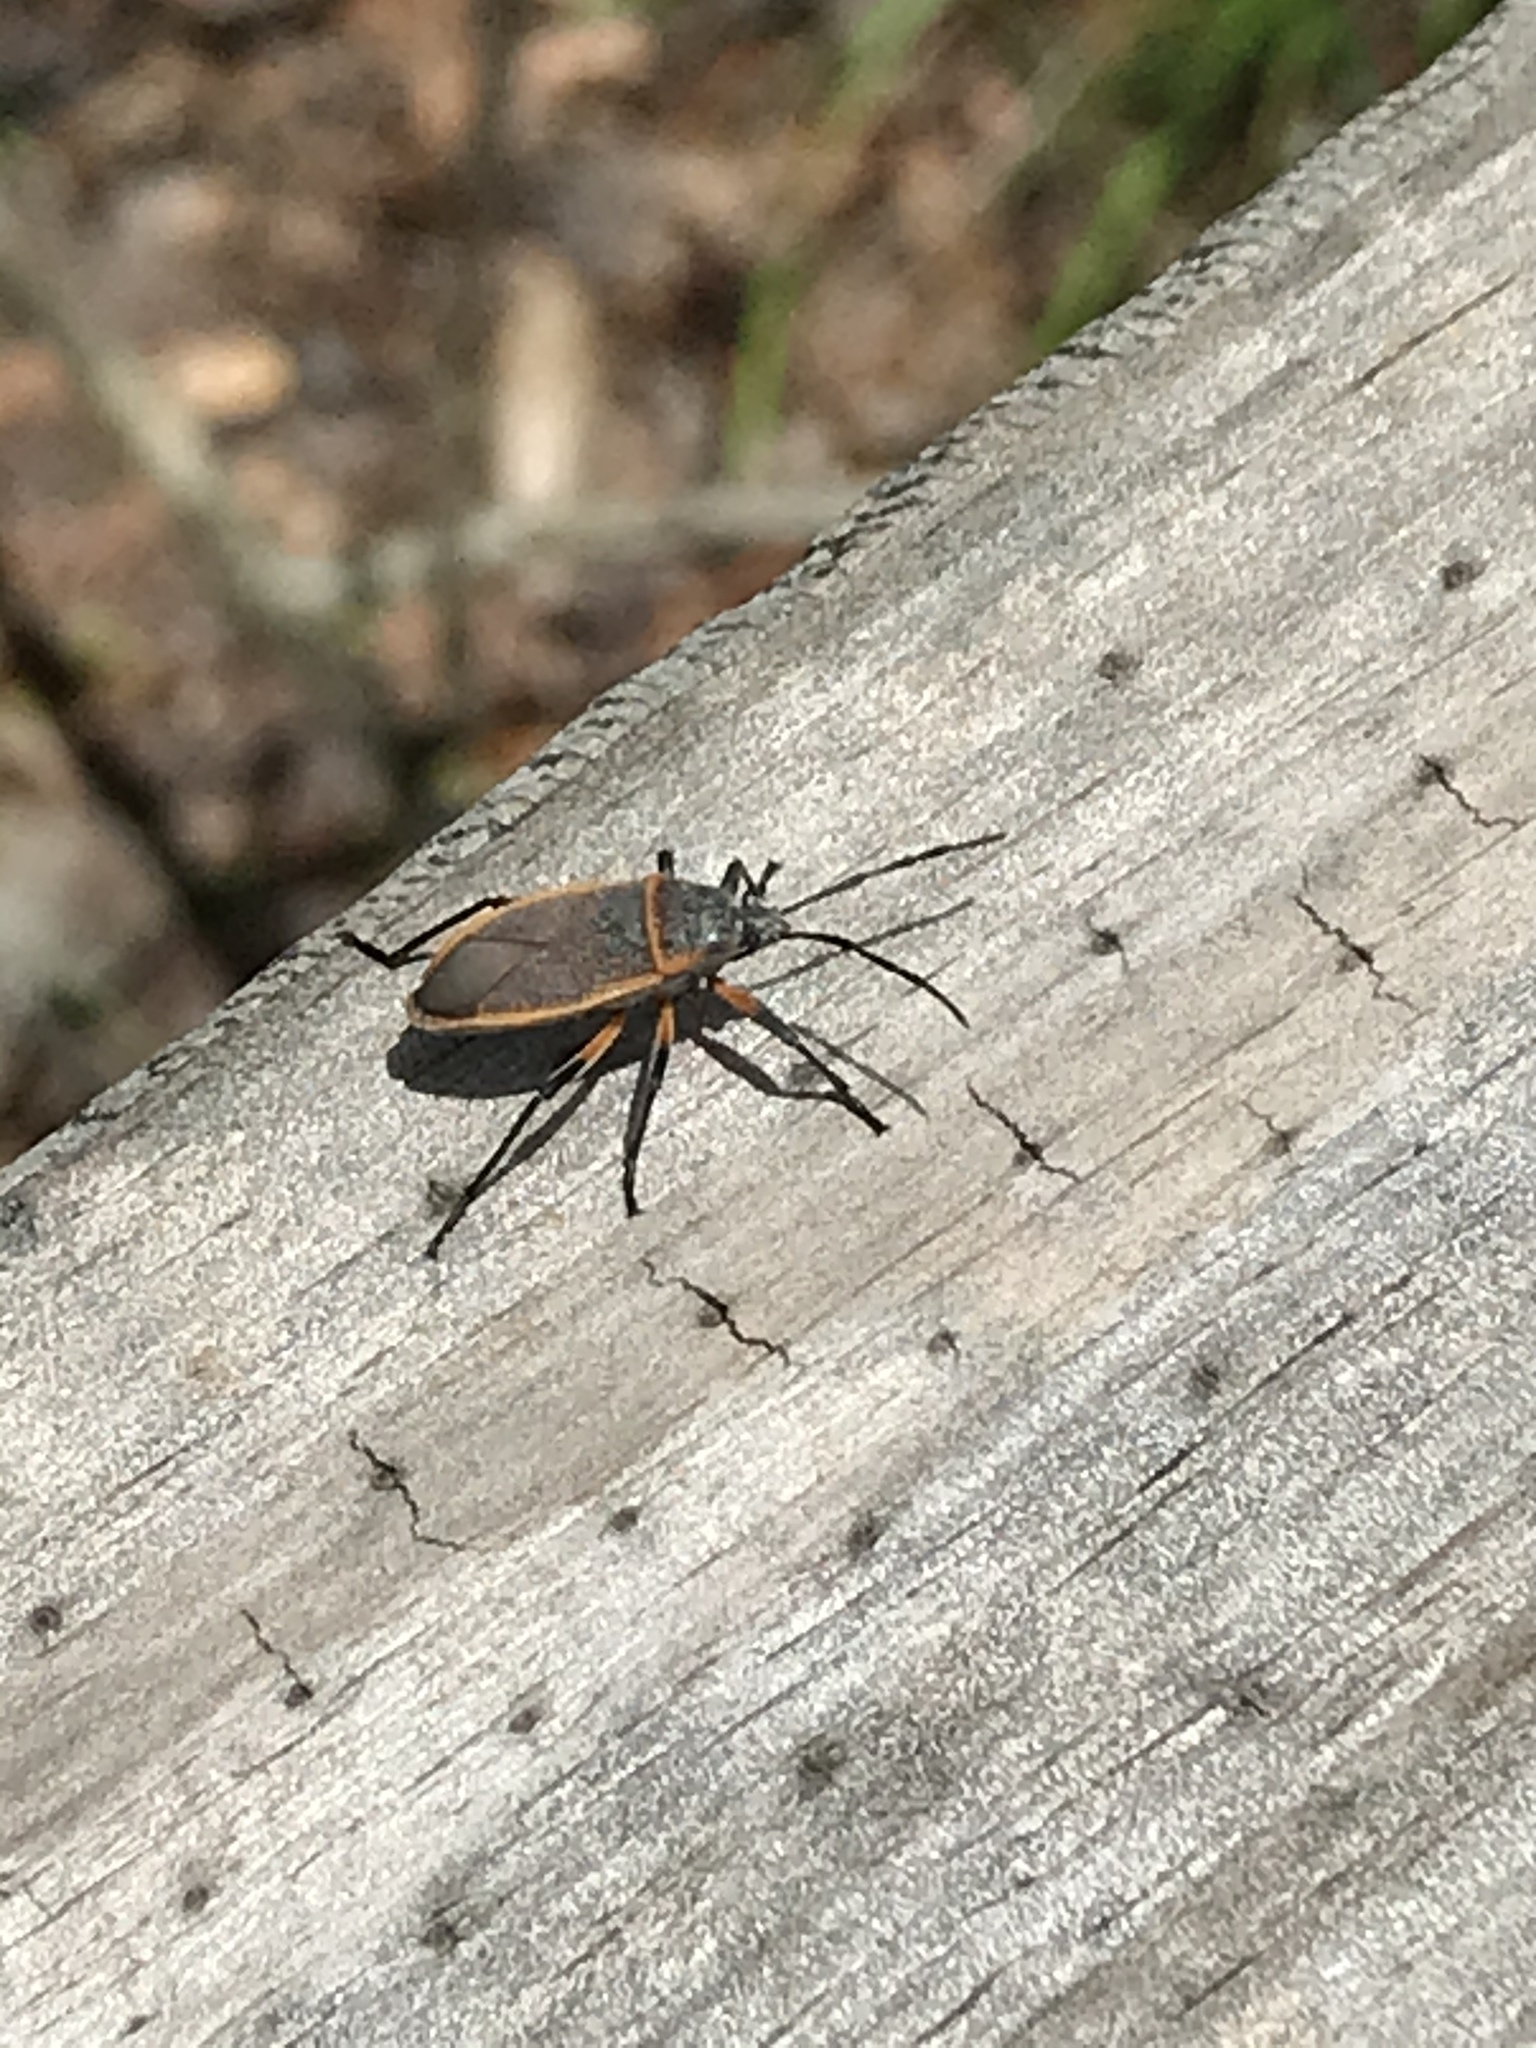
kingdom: Animalia
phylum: Arthropoda
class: Insecta
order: Hemiptera
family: Largidae
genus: Largus
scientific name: Largus succinctus
